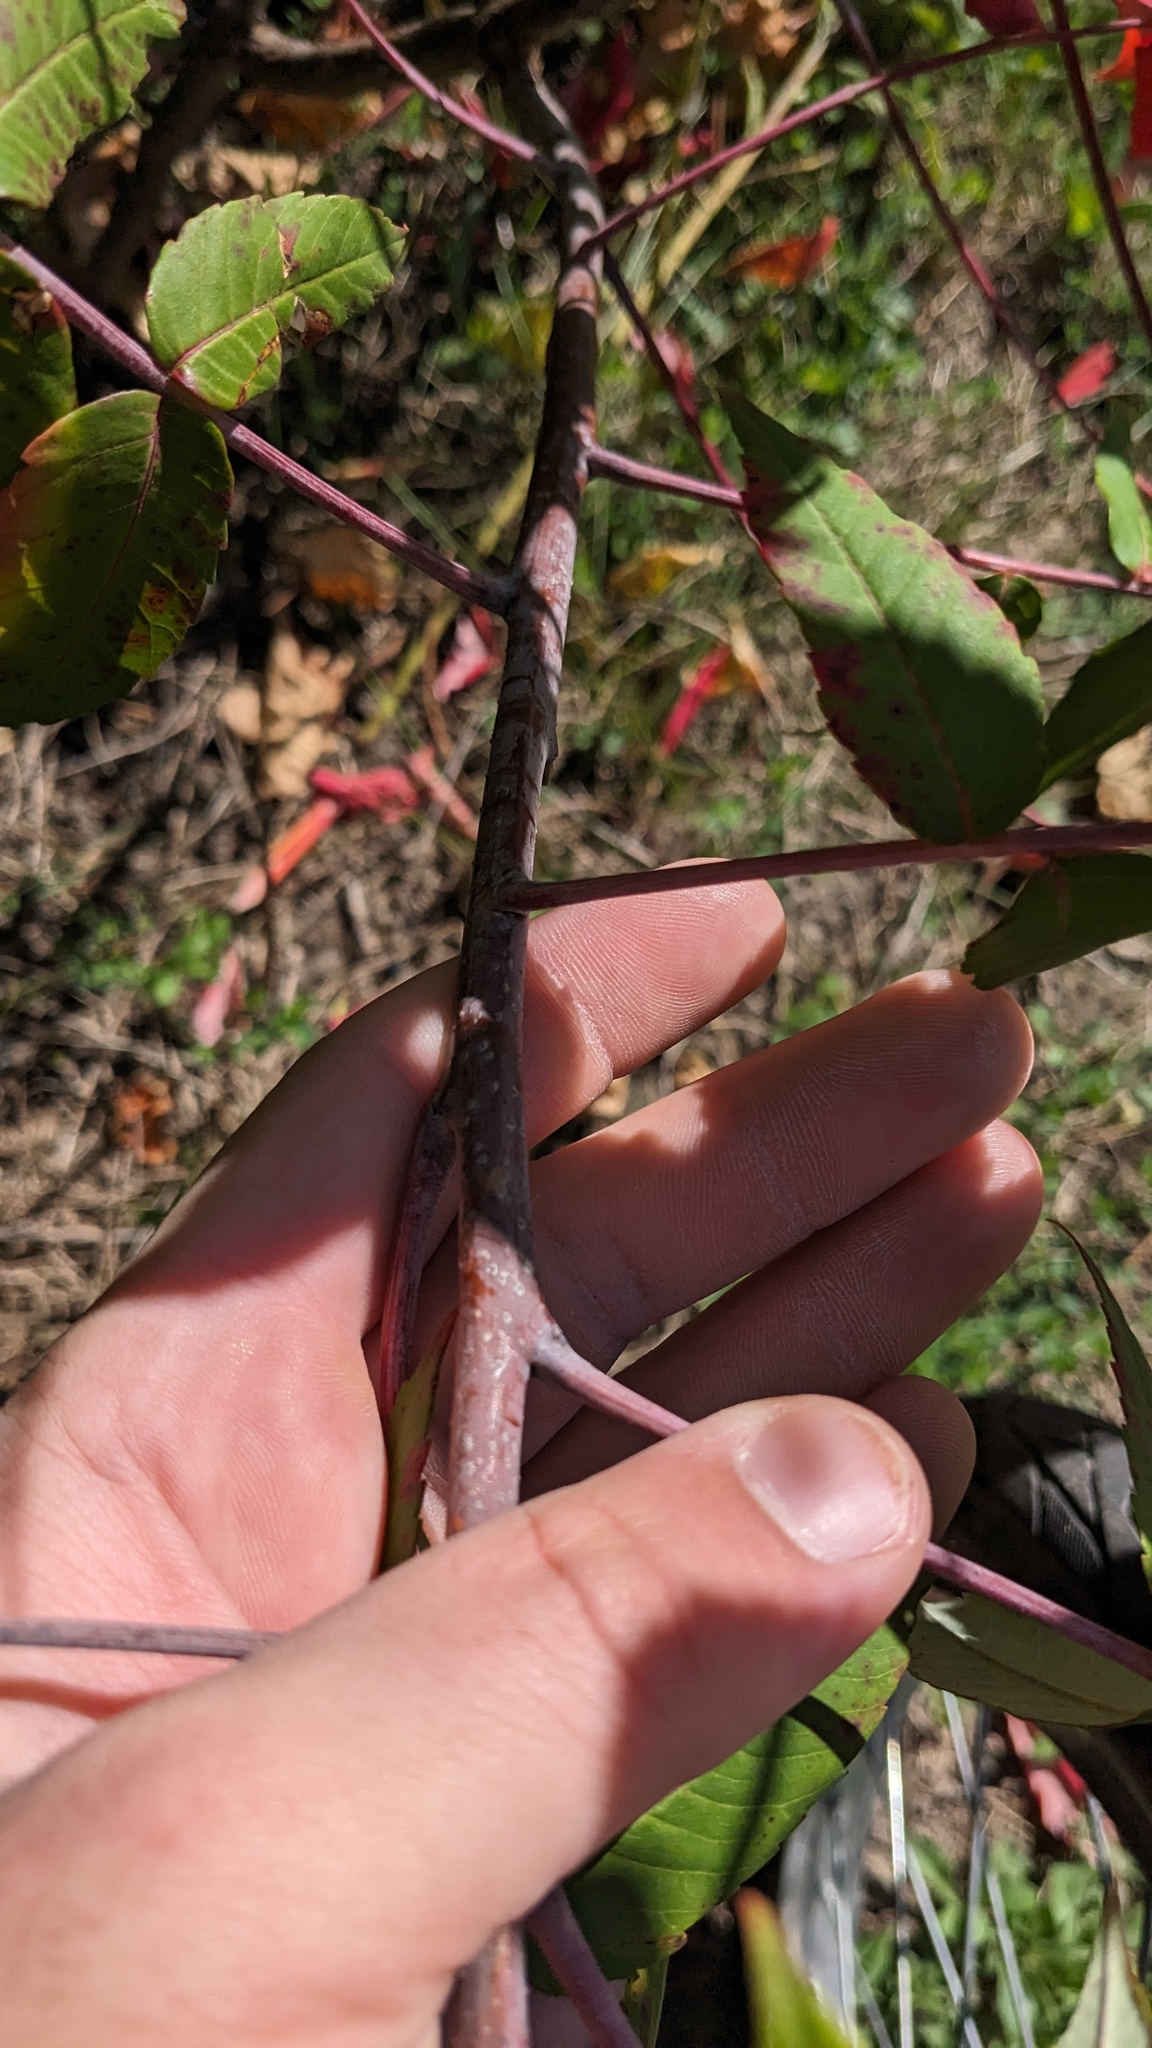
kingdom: Plantae
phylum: Tracheophyta
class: Magnoliopsida
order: Sapindales
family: Anacardiaceae
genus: Rhus
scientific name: Rhus glabra
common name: Scarlet sumac
